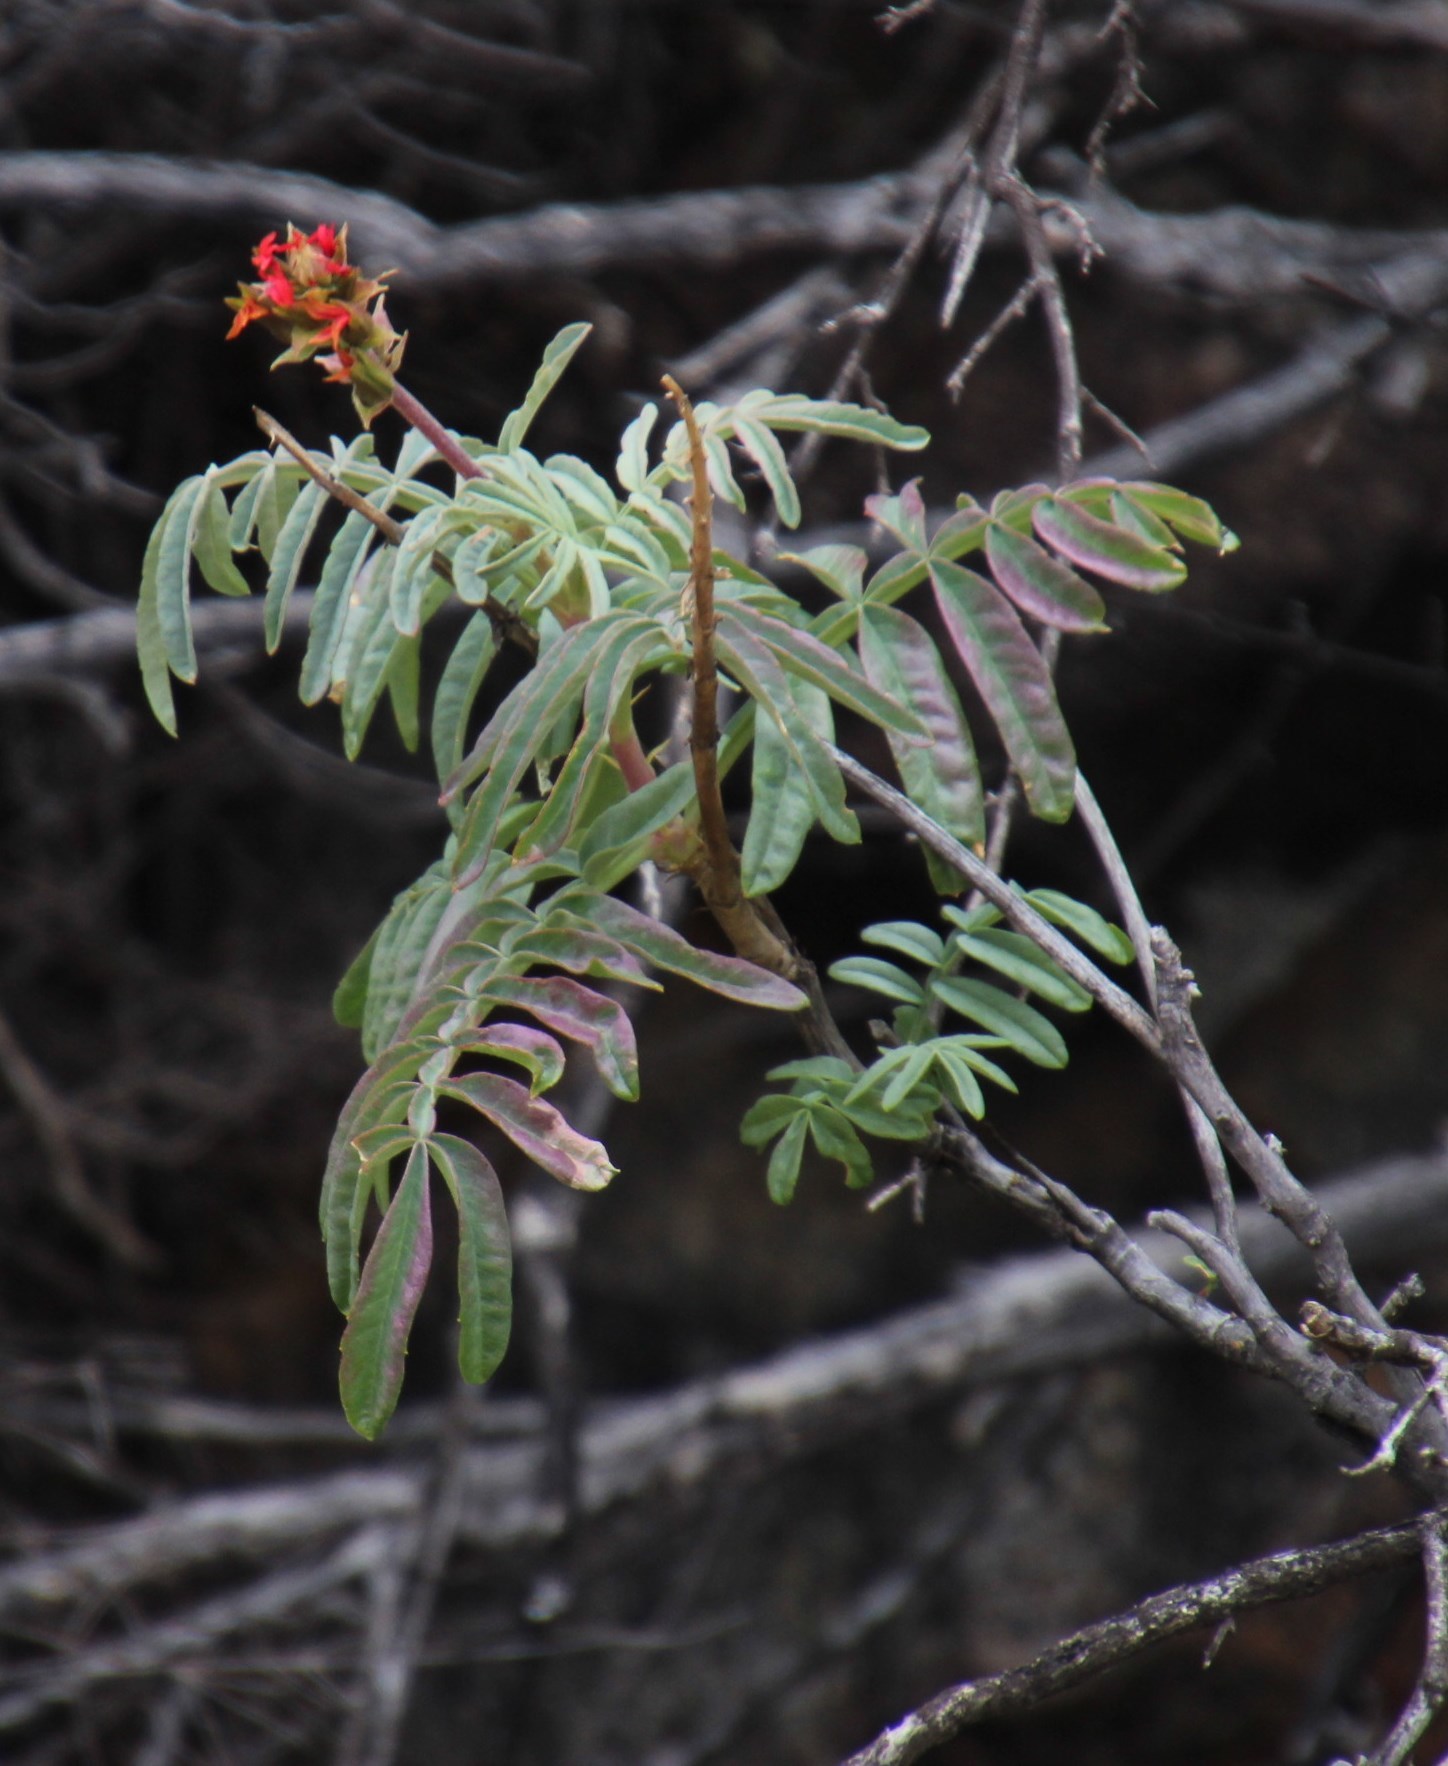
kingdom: Plantae
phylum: Tracheophyta
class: Magnoliopsida
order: Geraniales
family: Melianthaceae
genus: Melianthus
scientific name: Melianthus pectinatus
